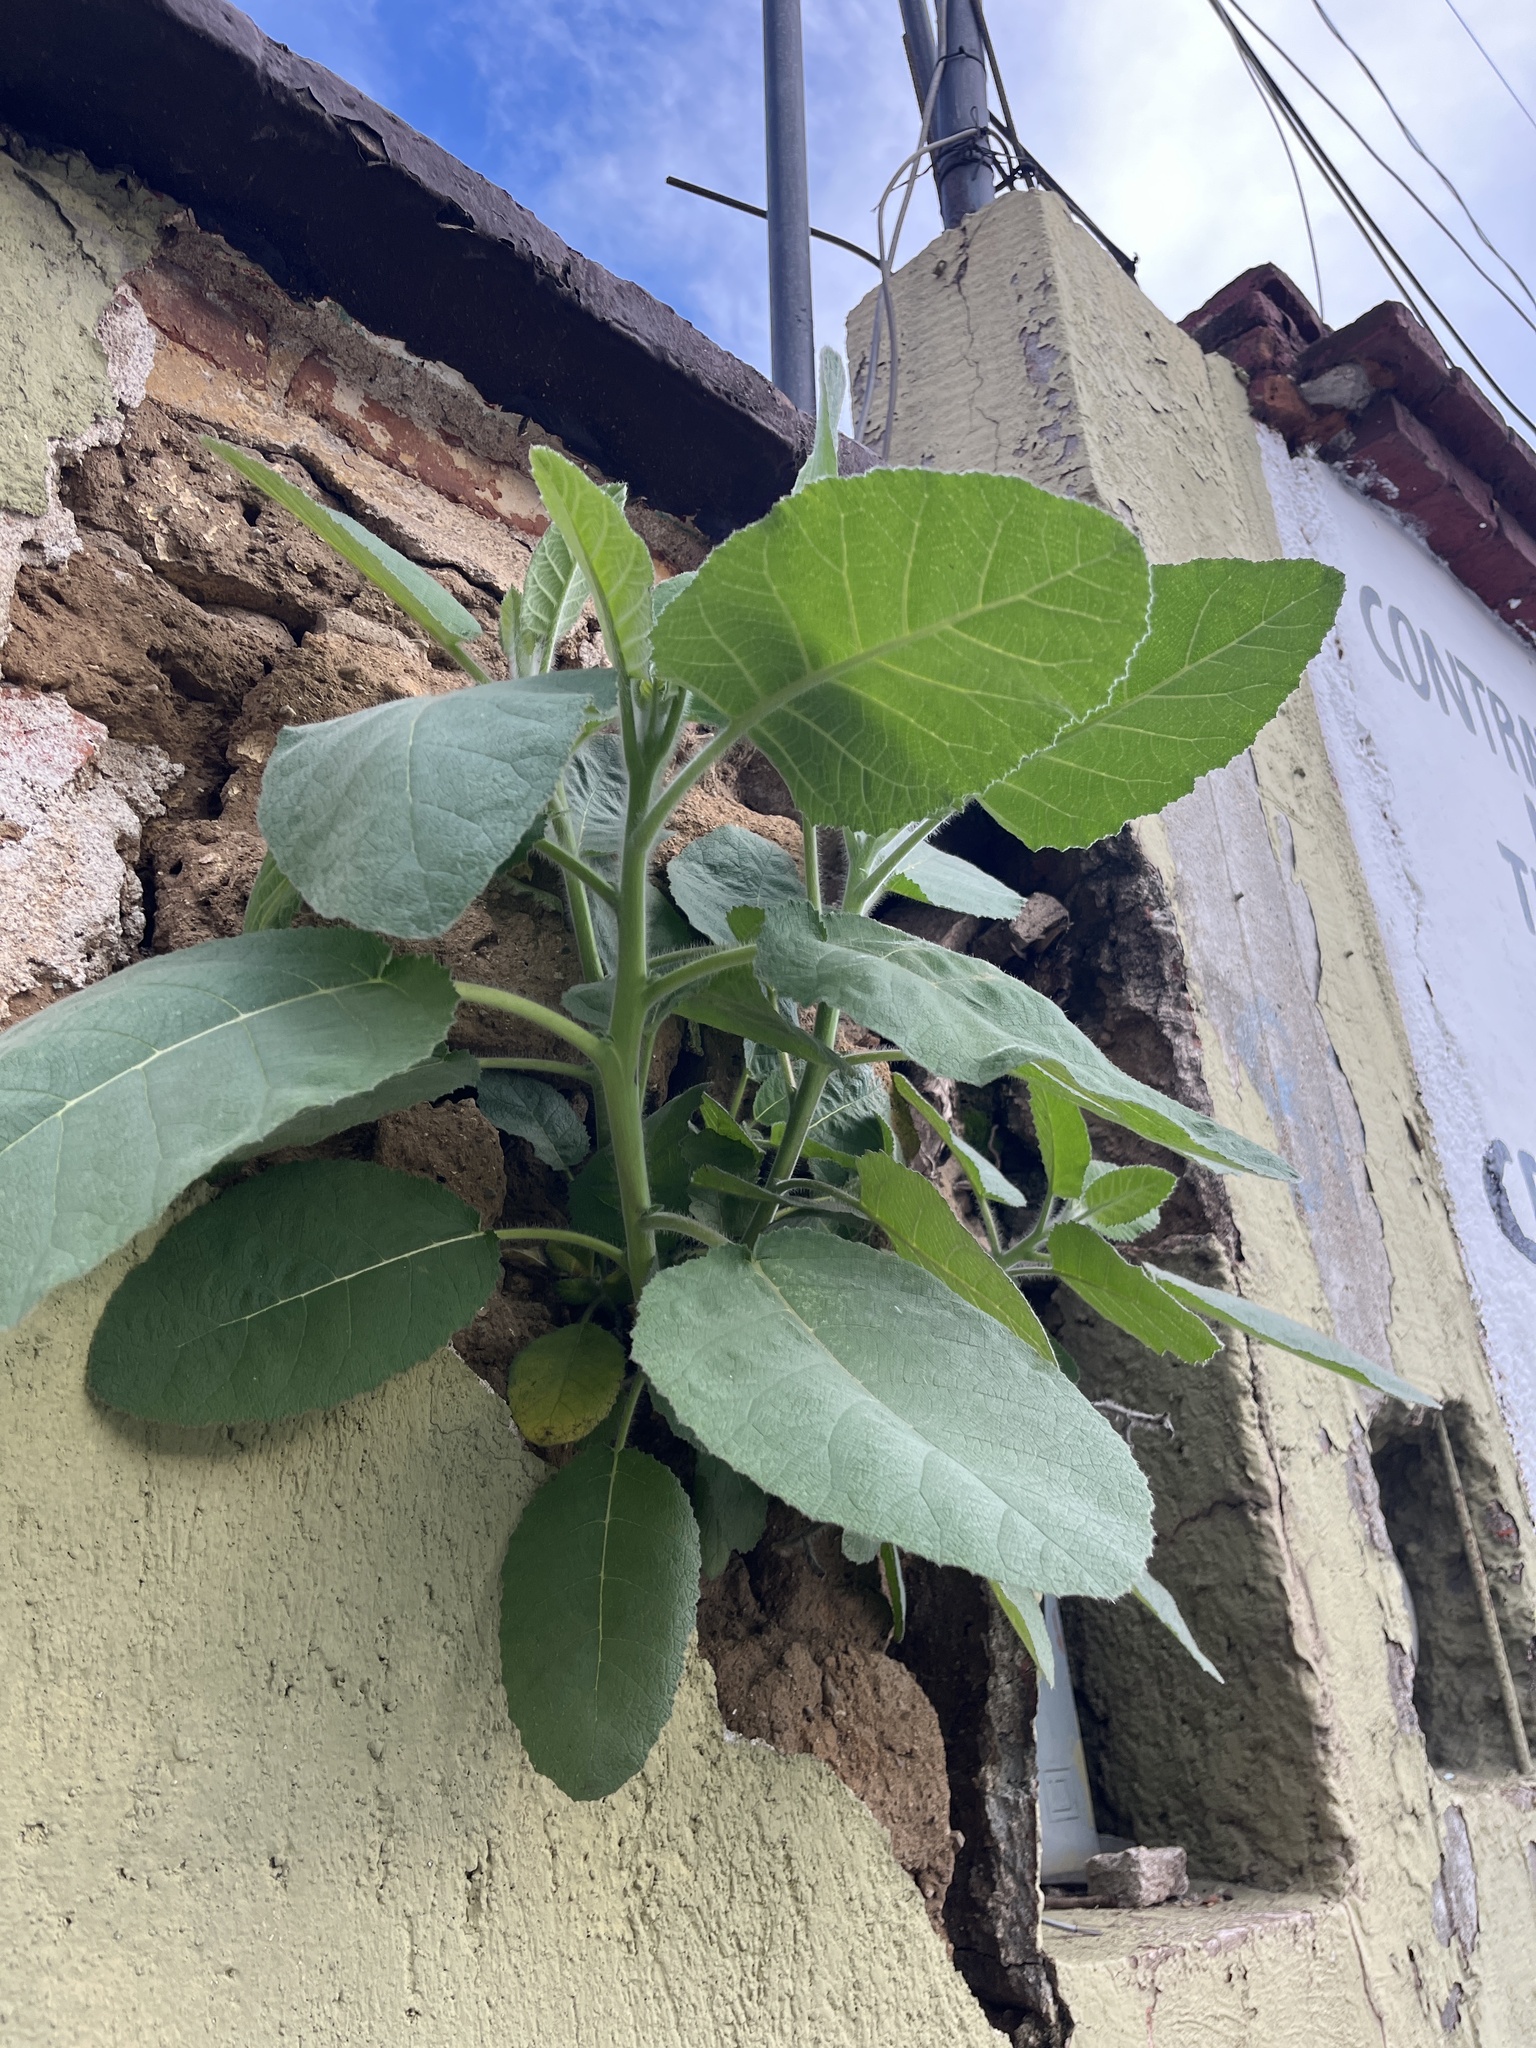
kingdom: Plantae
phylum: Tracheophyta
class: Magnoliopsida
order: Boraginales
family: Namaceae
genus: Wigandia
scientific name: Wigandia urens
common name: Caracus wigandia
